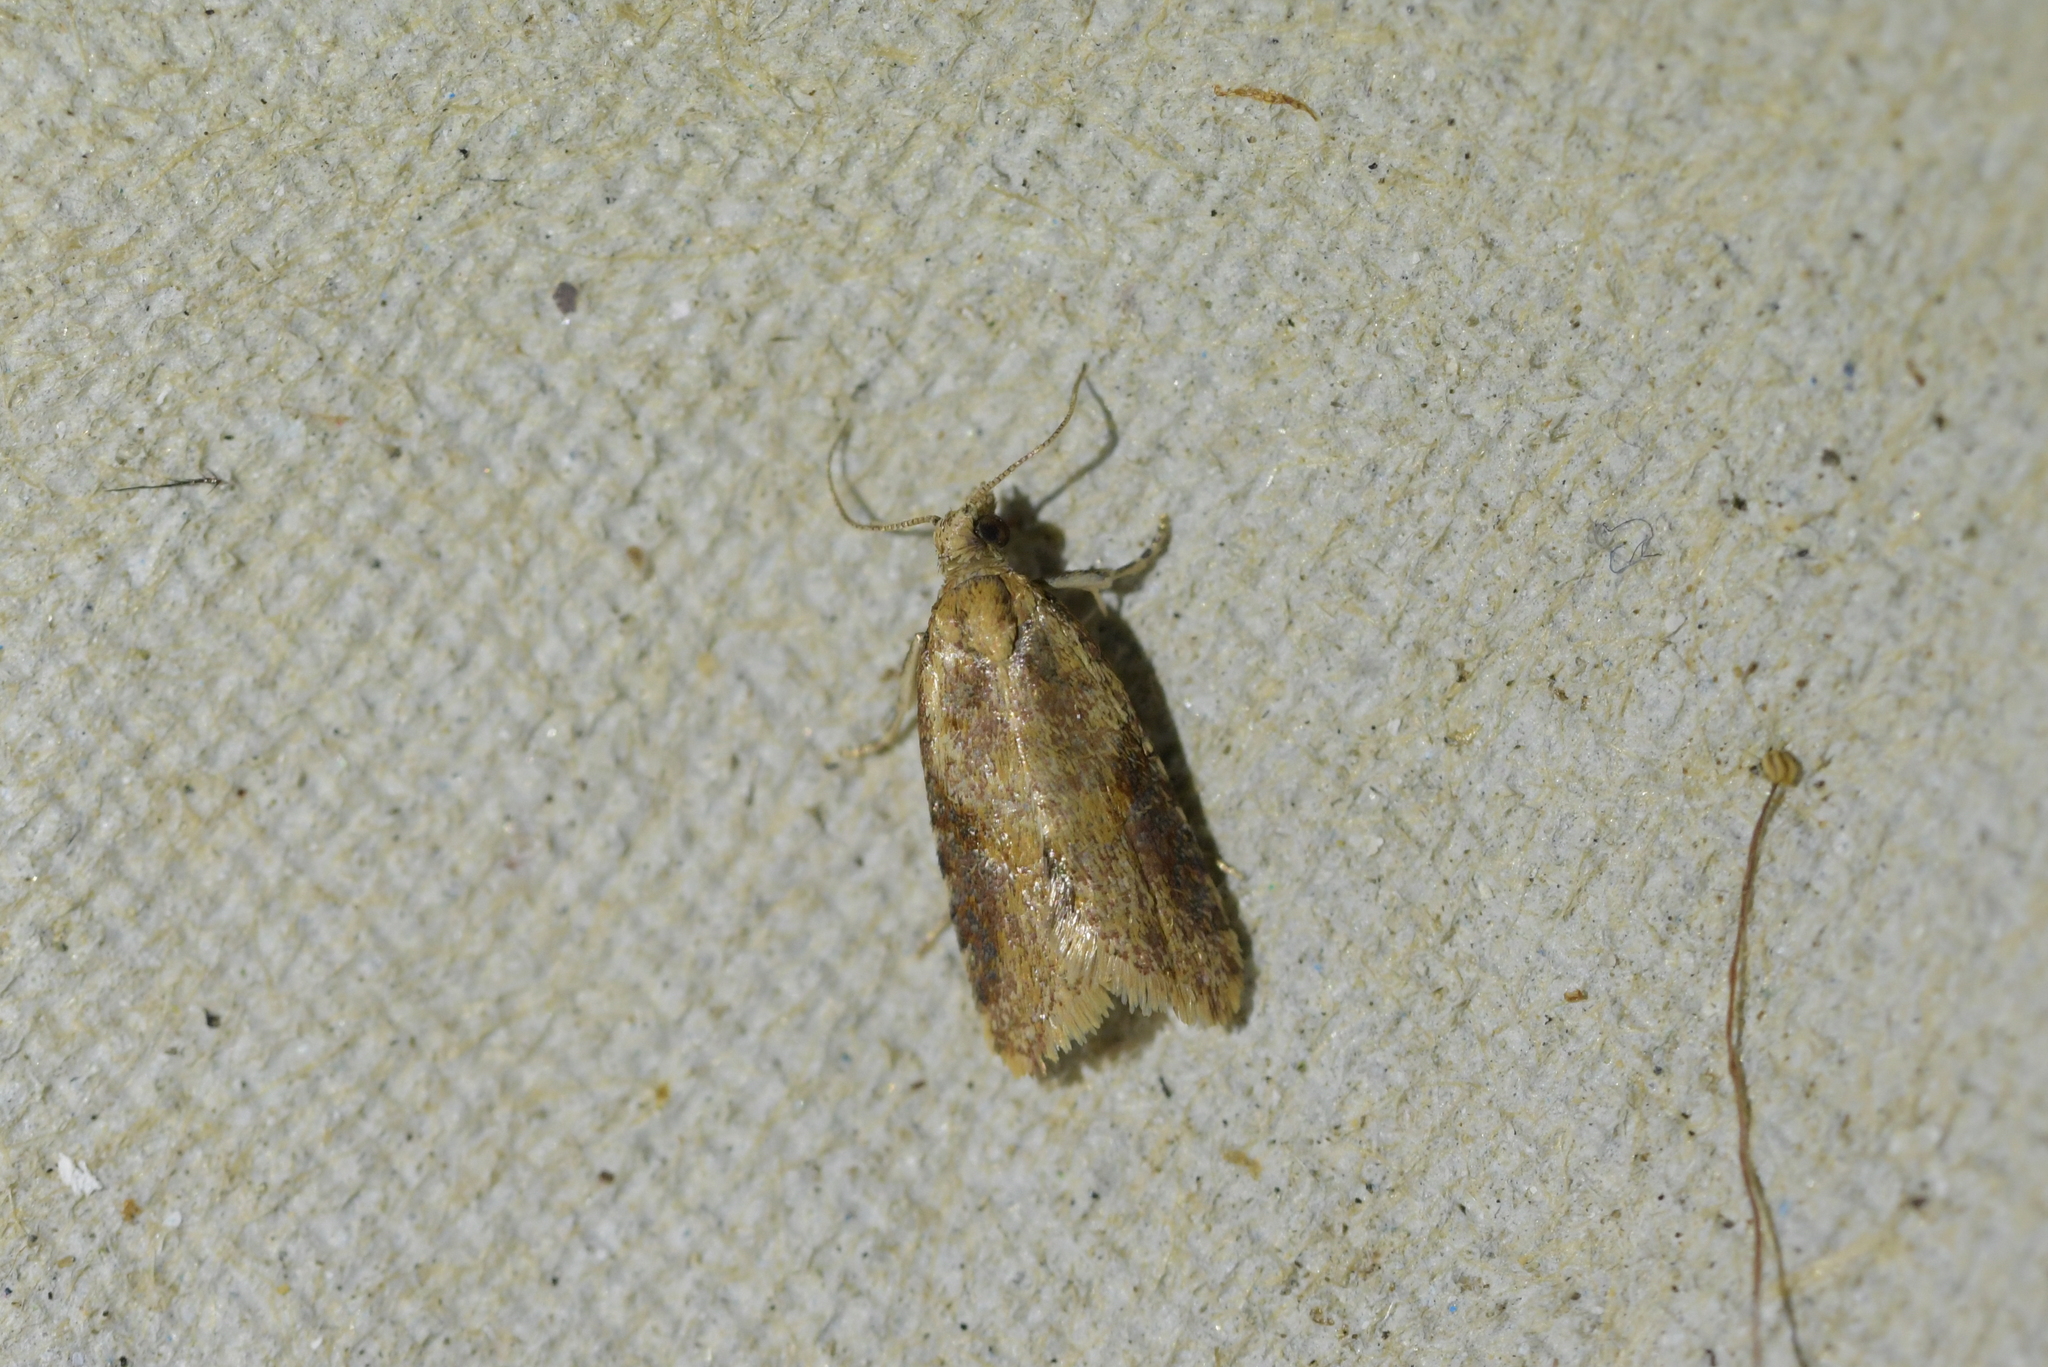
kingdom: Animalia
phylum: Arthropoda
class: Insecta
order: Lepidoptera
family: Tortricidae
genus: Capua
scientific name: Capua semiferana
